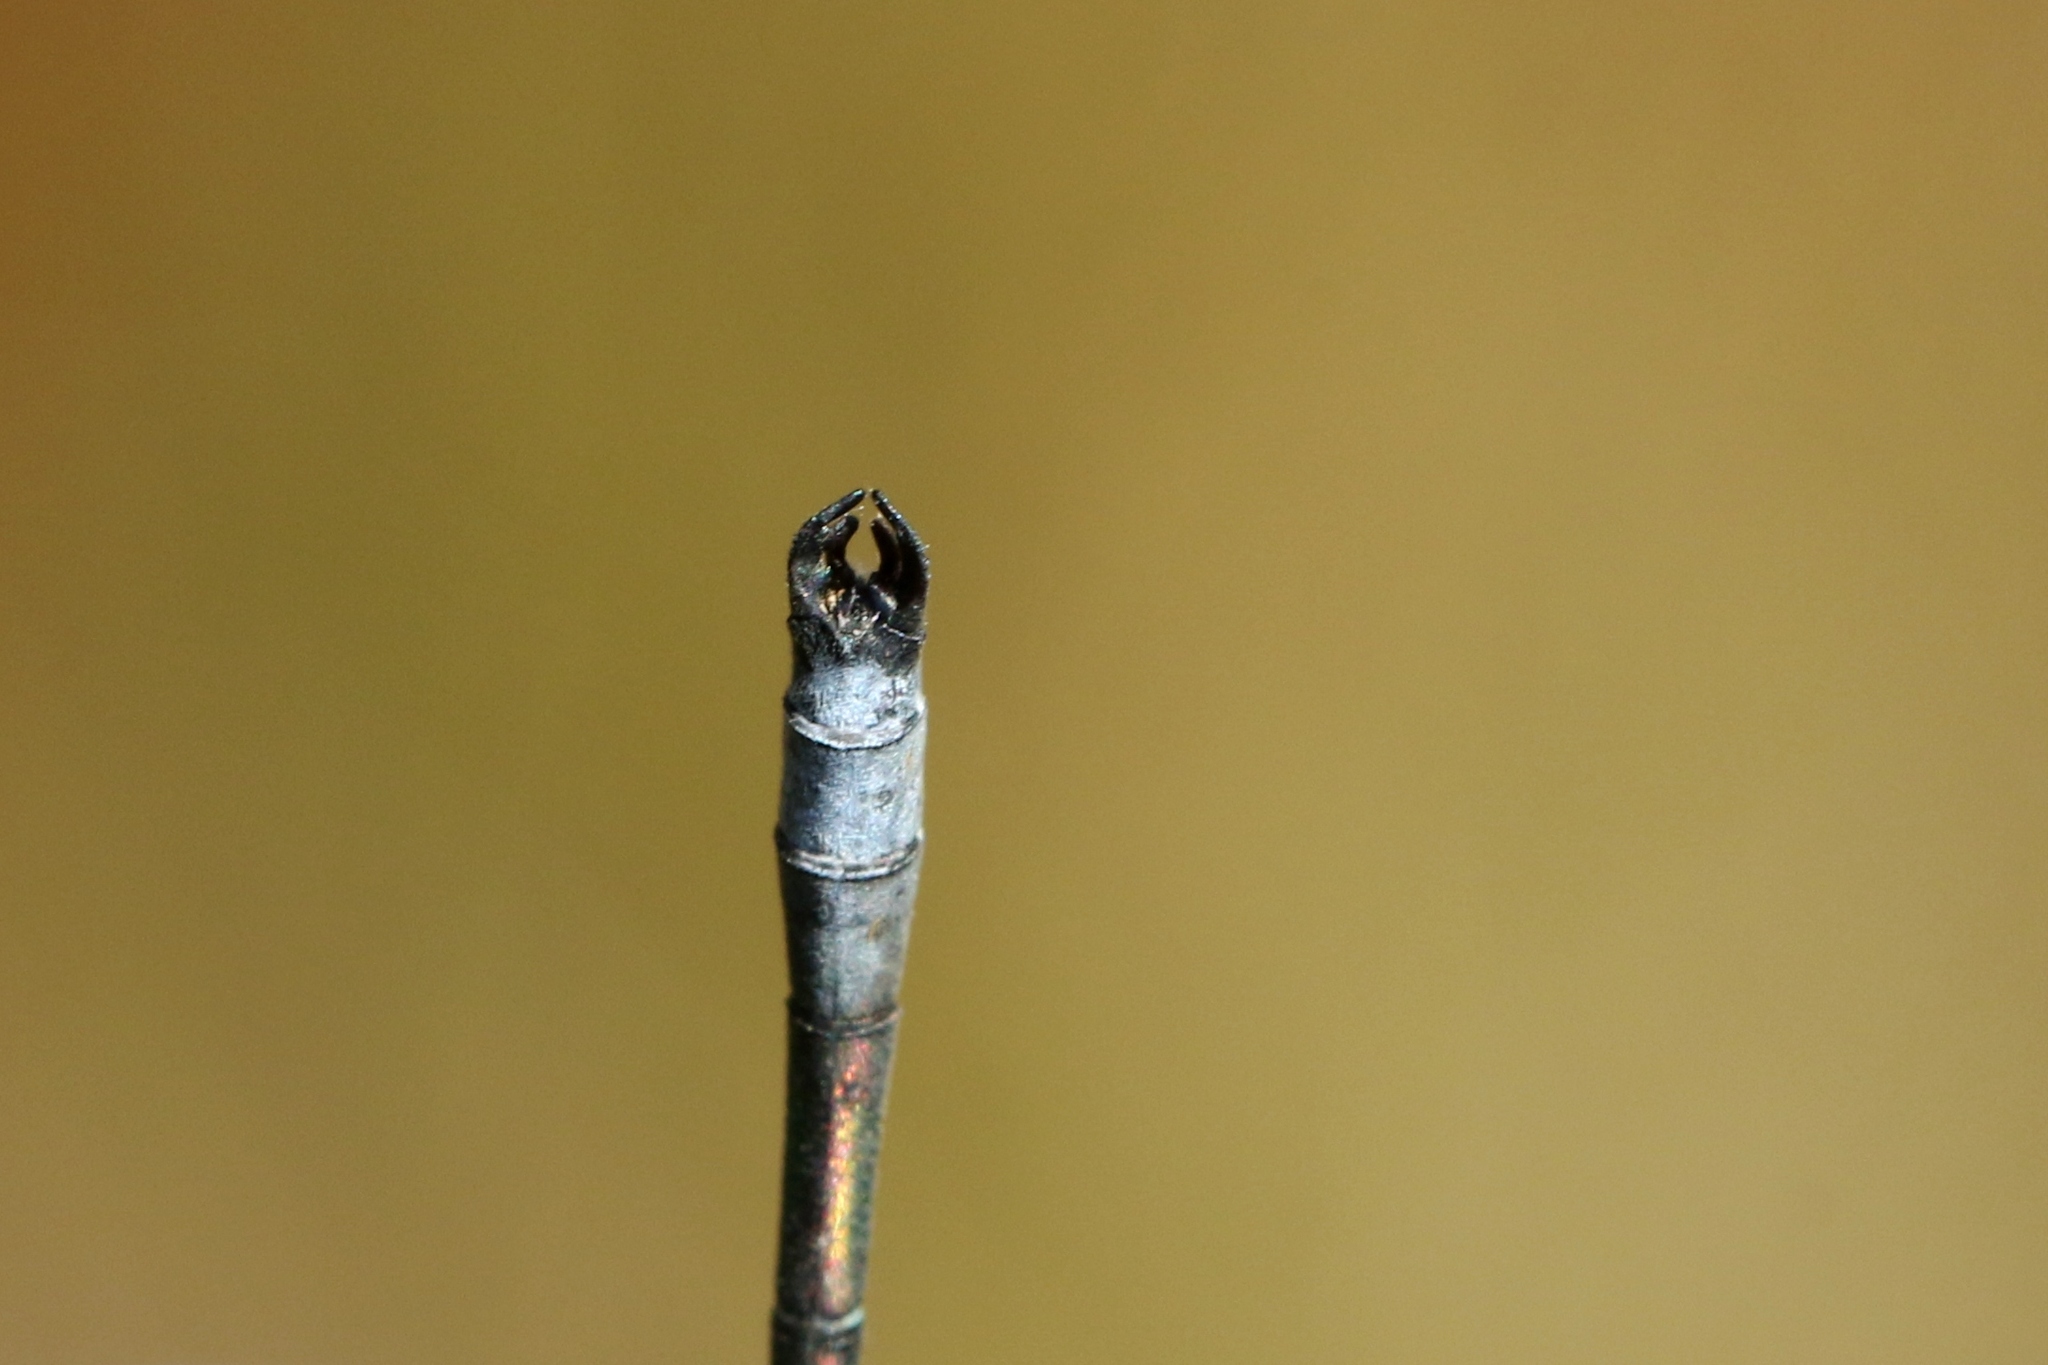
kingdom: Animalia
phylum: Arthropoda
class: Insecta
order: Odonata
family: Lestidae
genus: Lestes
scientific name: Lestes dryas
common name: Scarce emerald damselfly
